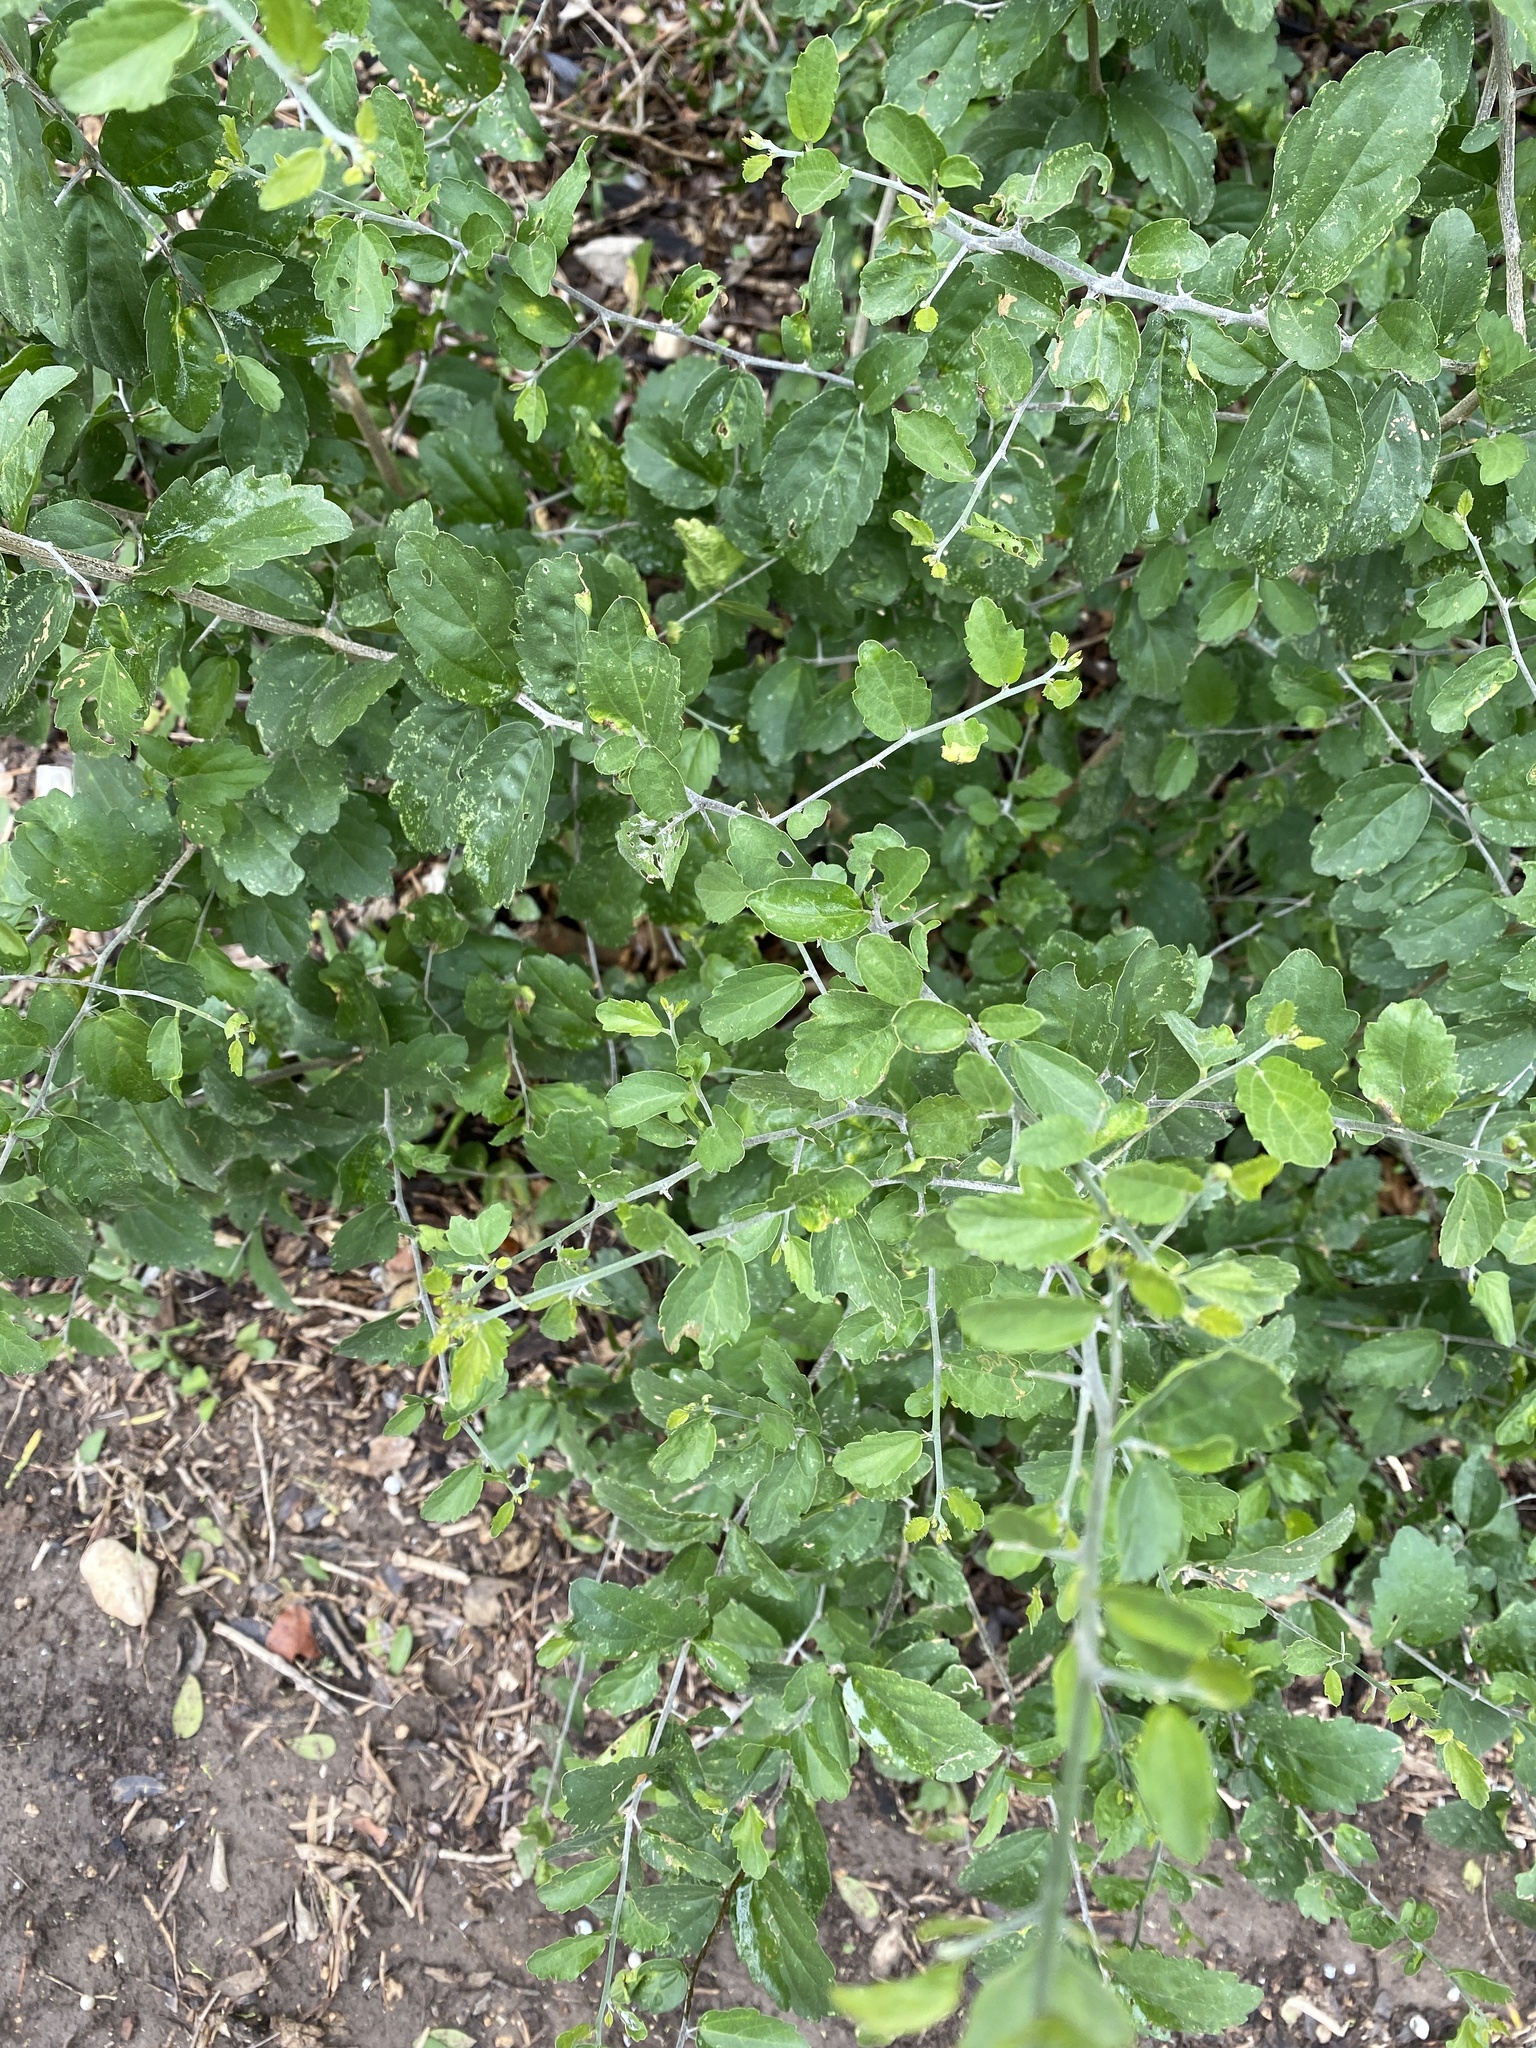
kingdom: Plantae
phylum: Tracheophyta
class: Magnoliopsida
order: Rosales
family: Rhamnaceae
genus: Colubrina
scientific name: Colubrina texensis
